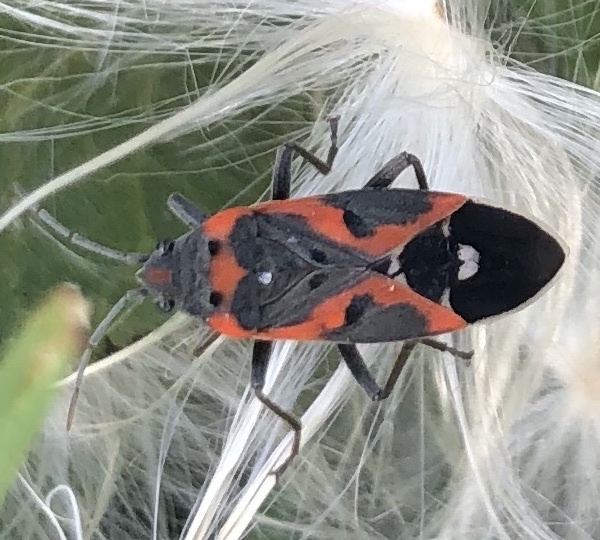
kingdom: Animalia
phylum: Arthropoda
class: Insecta
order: Hemiptera
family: Lygaeidae
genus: Lygaeus
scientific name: Lygaeus kalmii
